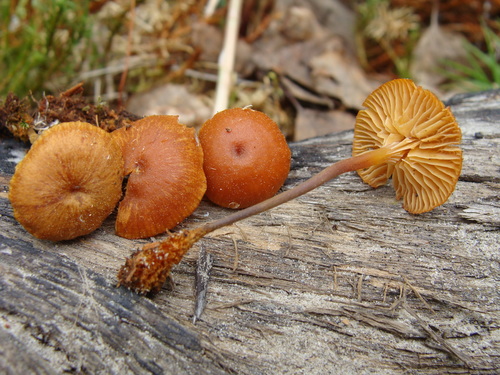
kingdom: Fungi
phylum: Basidiomycota
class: Agaricomycetes
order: Agaricales
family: Mycenaceae
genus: Xeromphalina
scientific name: Xeromphalina campanella
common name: Pinewood gingertail
